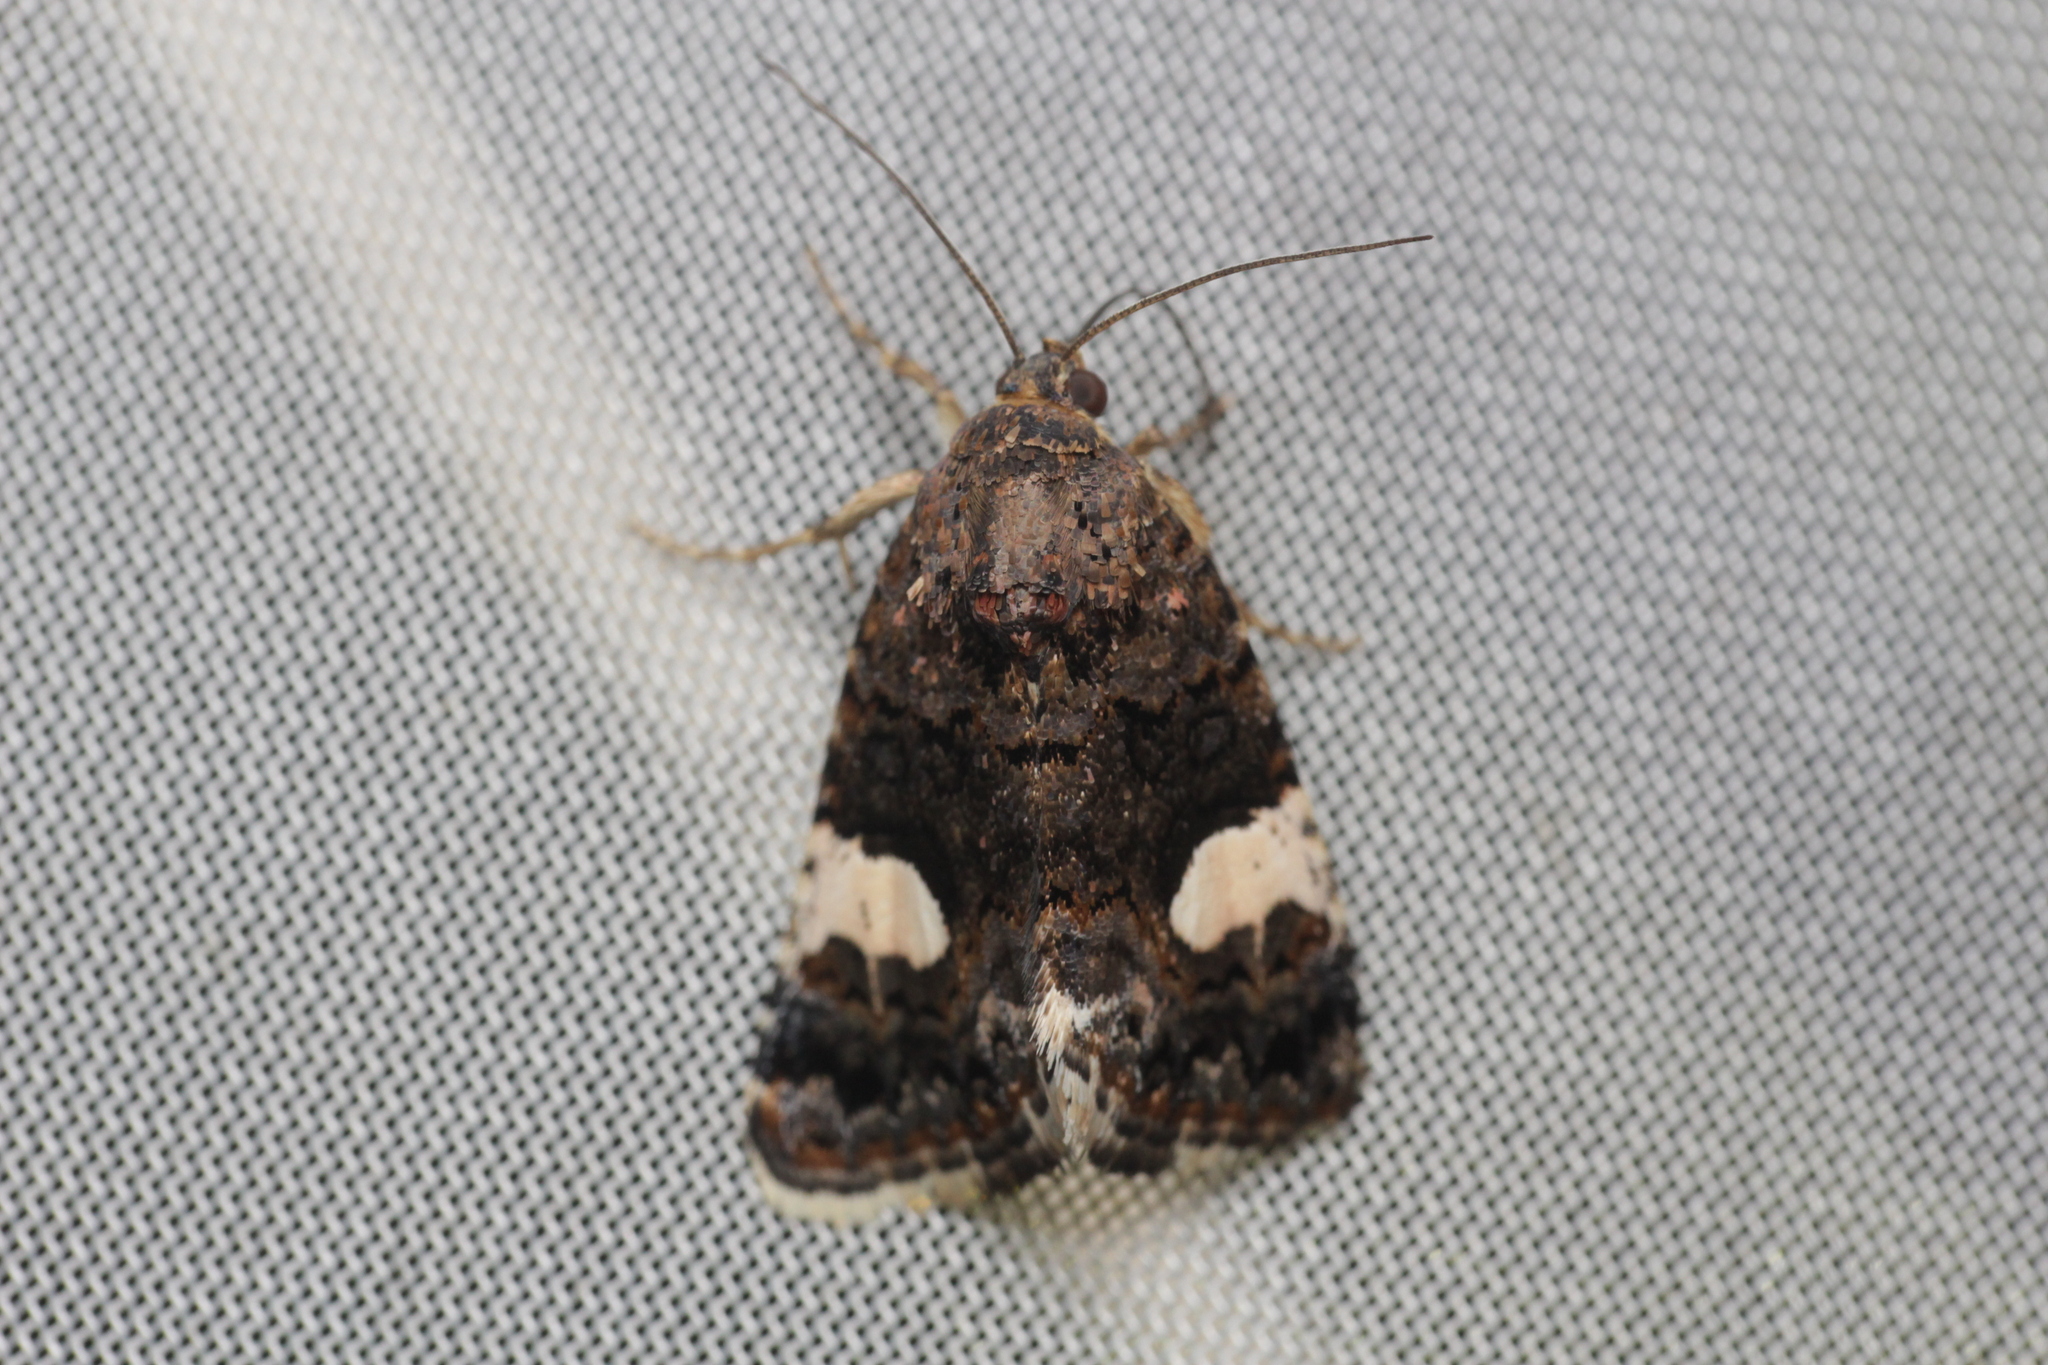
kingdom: Animalia
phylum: Arthropoda
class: Insecta
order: Lepidoptera
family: Erebidae
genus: Tyta
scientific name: Tyta luctuosa
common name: Four-spotted
